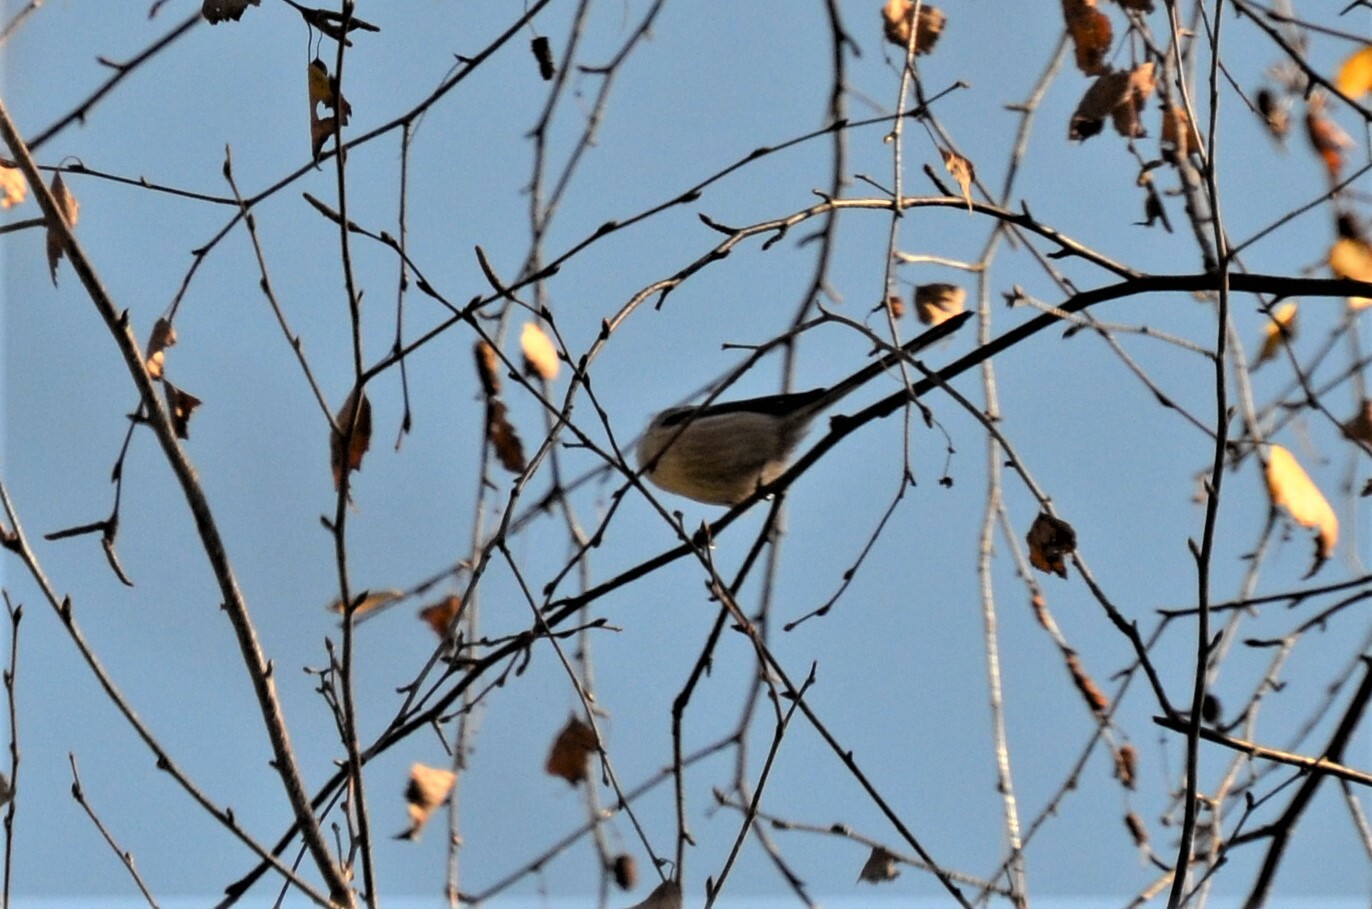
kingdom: Animalia
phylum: Chordata
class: Aves
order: Passeriformes
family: Aegithalidae
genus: Aegithalos
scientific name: Aegithalos caudatus
